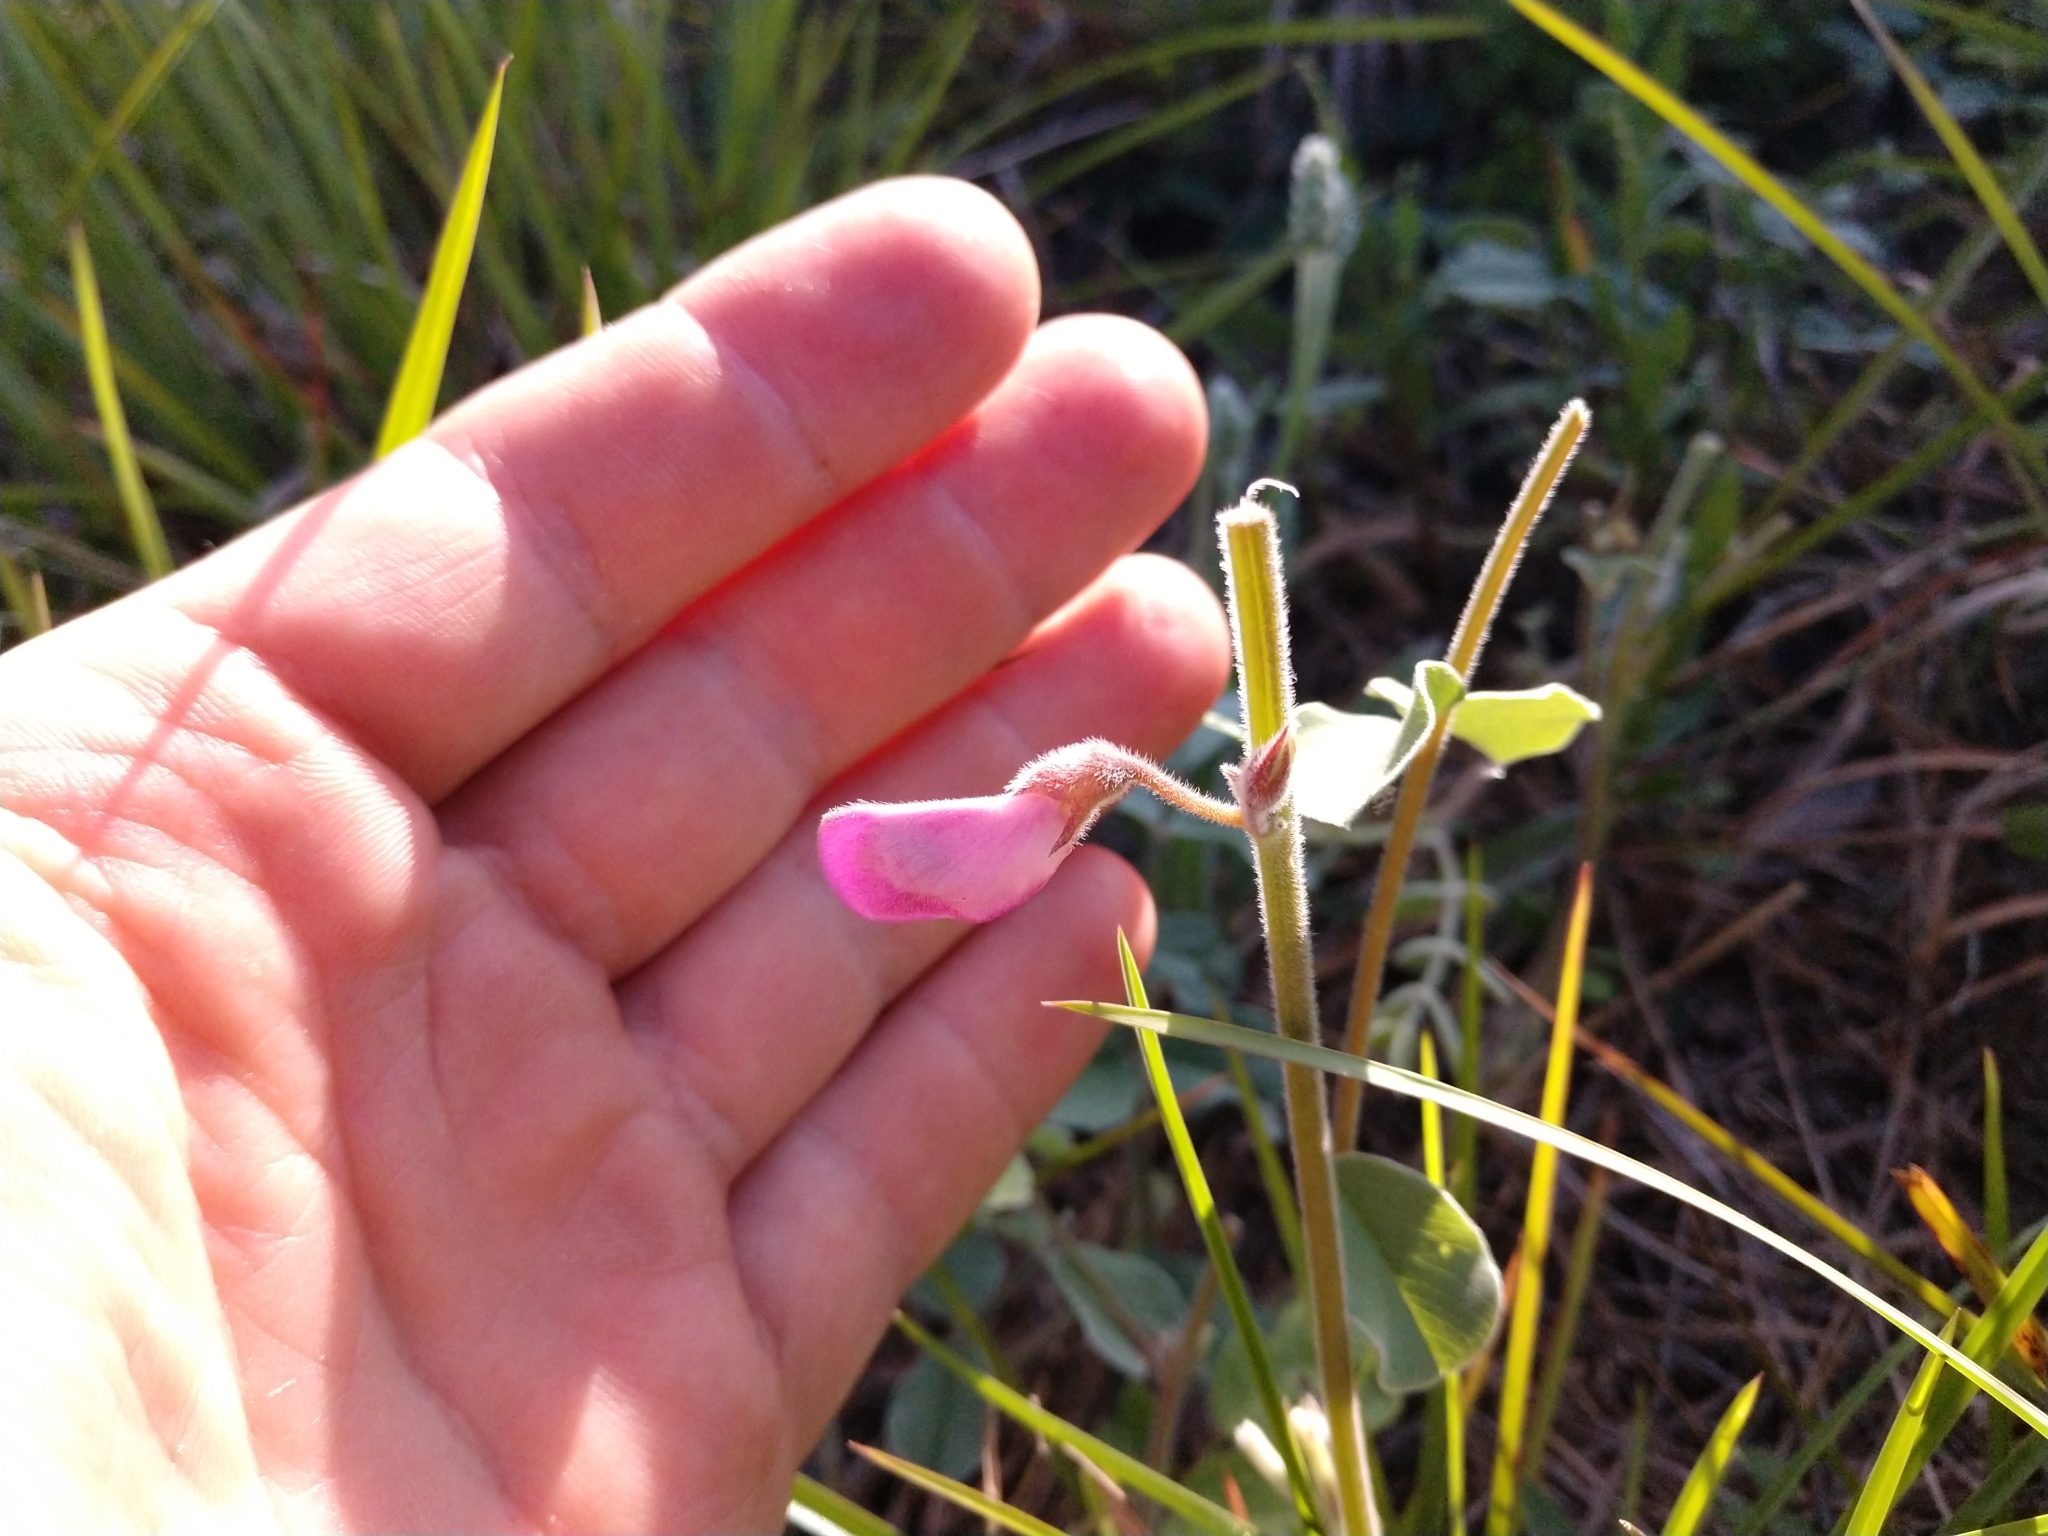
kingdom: Plantae
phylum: Tracheophyta
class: Magnoliopsida
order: Fabales
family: Fabaceae
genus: Tephrosia
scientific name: Tephrosia lindheimeri
